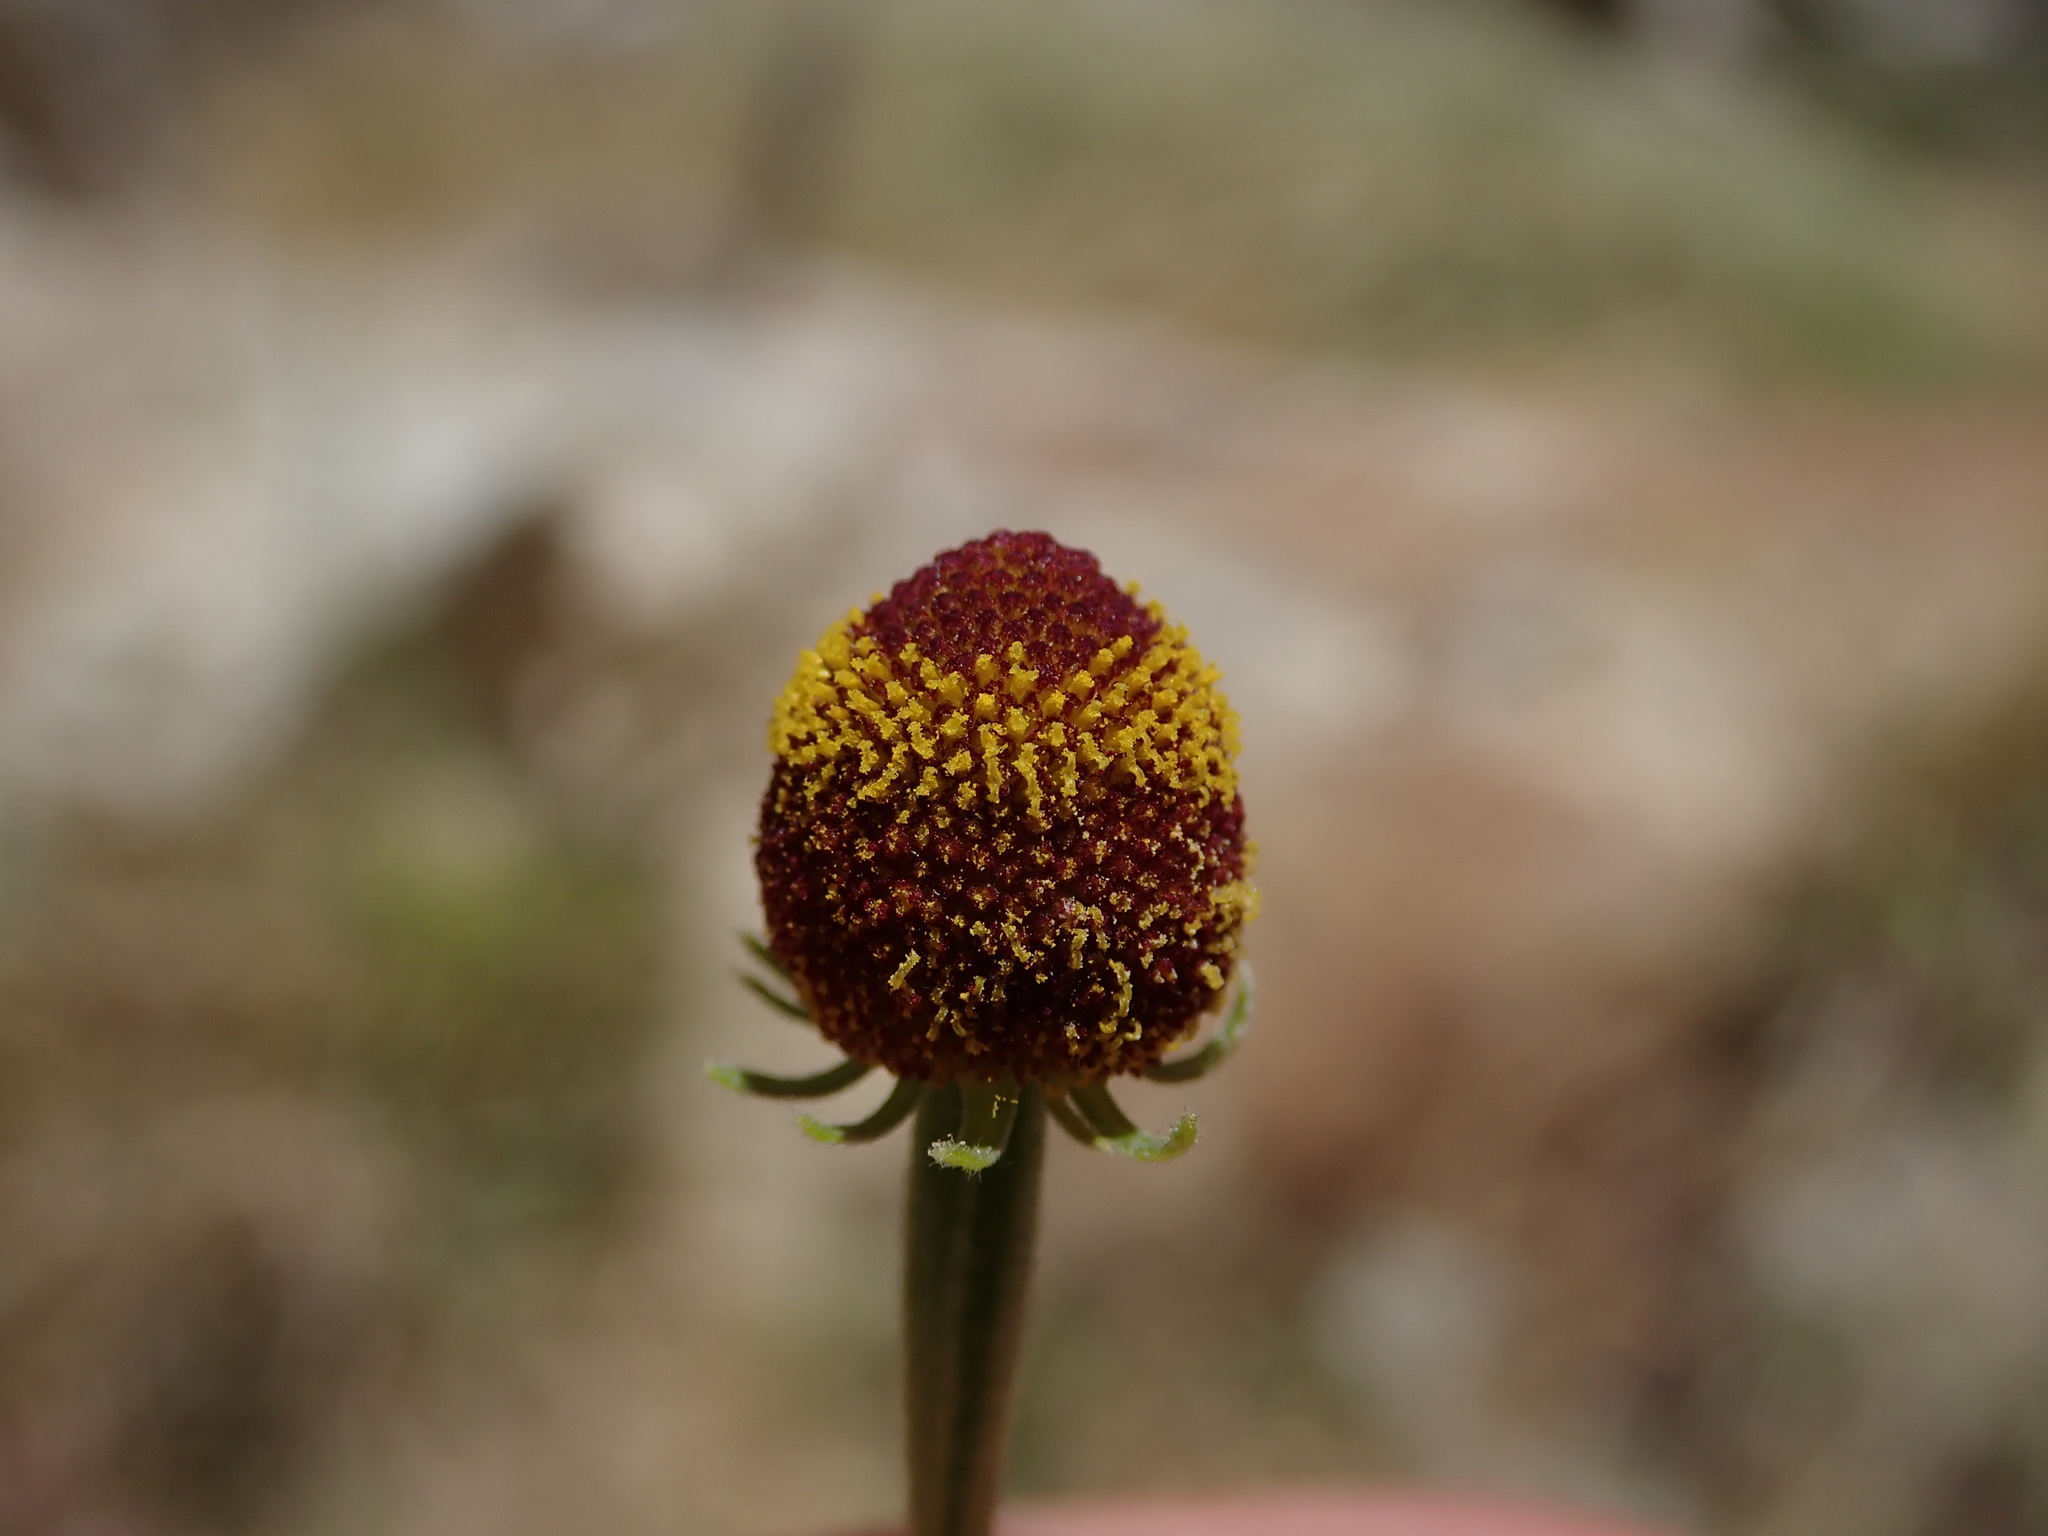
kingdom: Plantae
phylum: Tracheophyta
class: Magnoliopsida
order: Asterales
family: Asteraceae
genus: Helenium
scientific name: Helenium thurberi
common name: Thurber's sneezeweed
